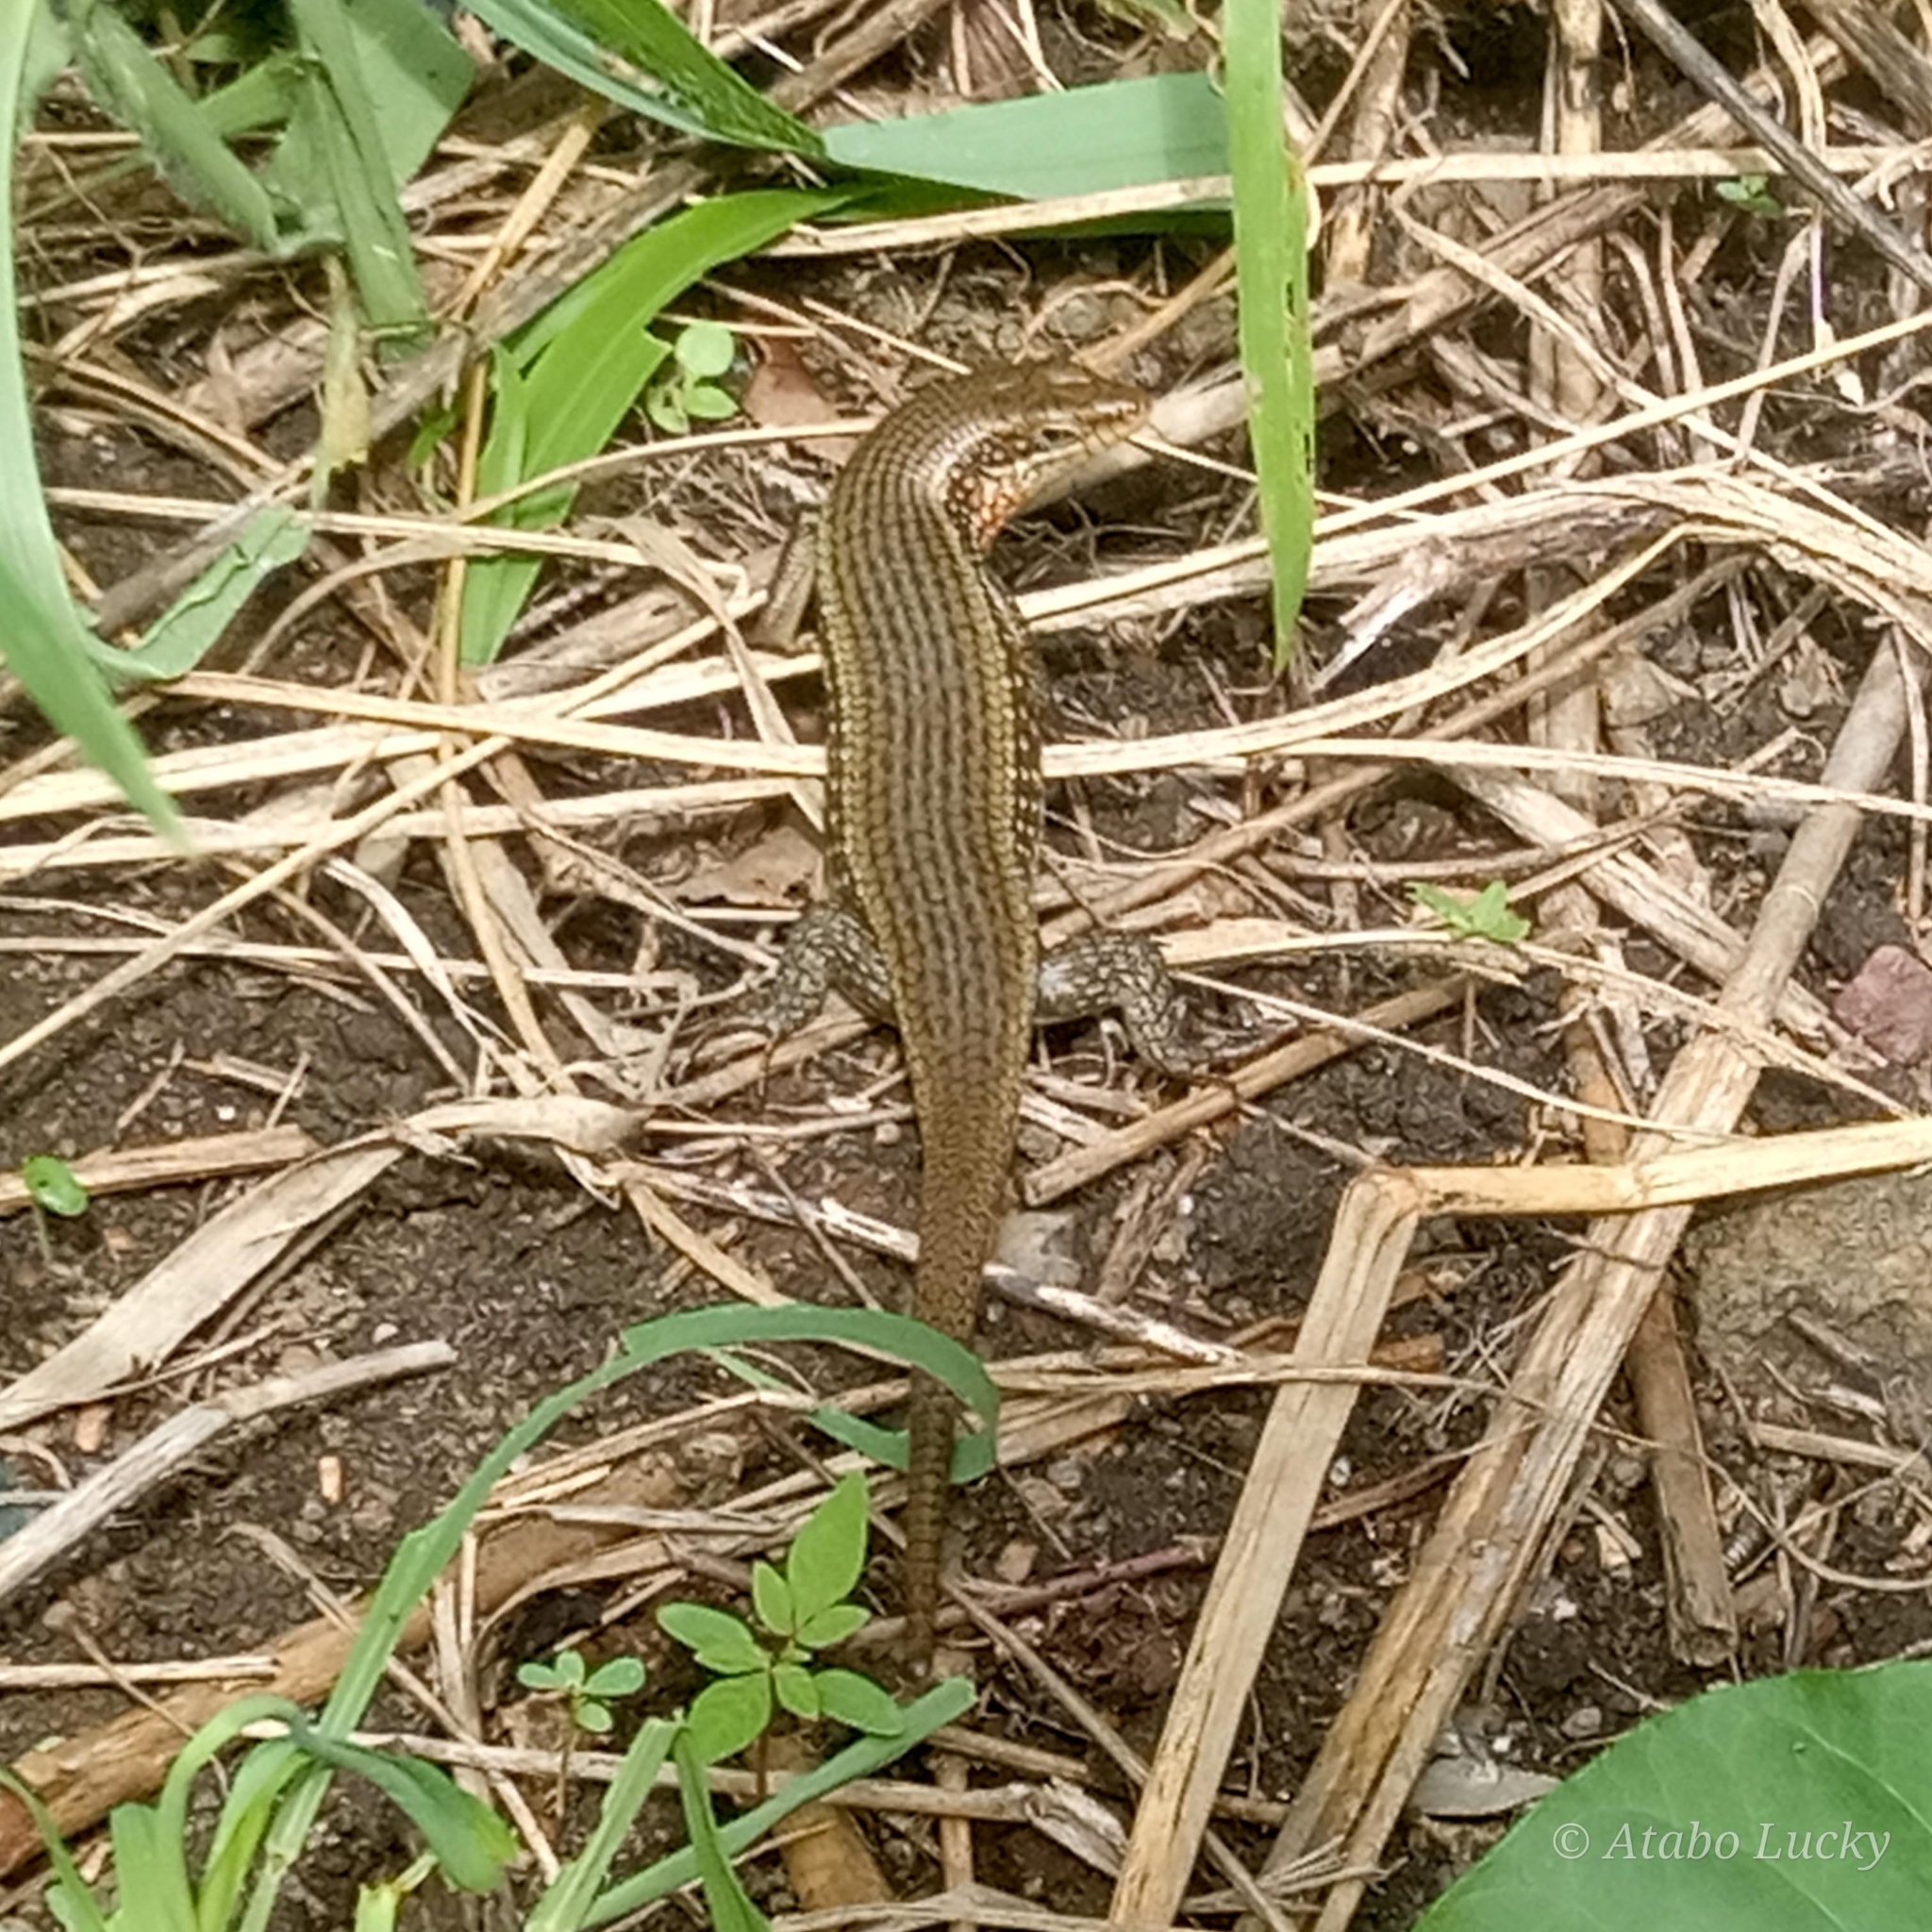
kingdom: Animalia
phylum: Chordata
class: Squamata
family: Scincidae
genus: Trachylepis
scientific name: Trachylepis perrotetii
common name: Teita mabuya
